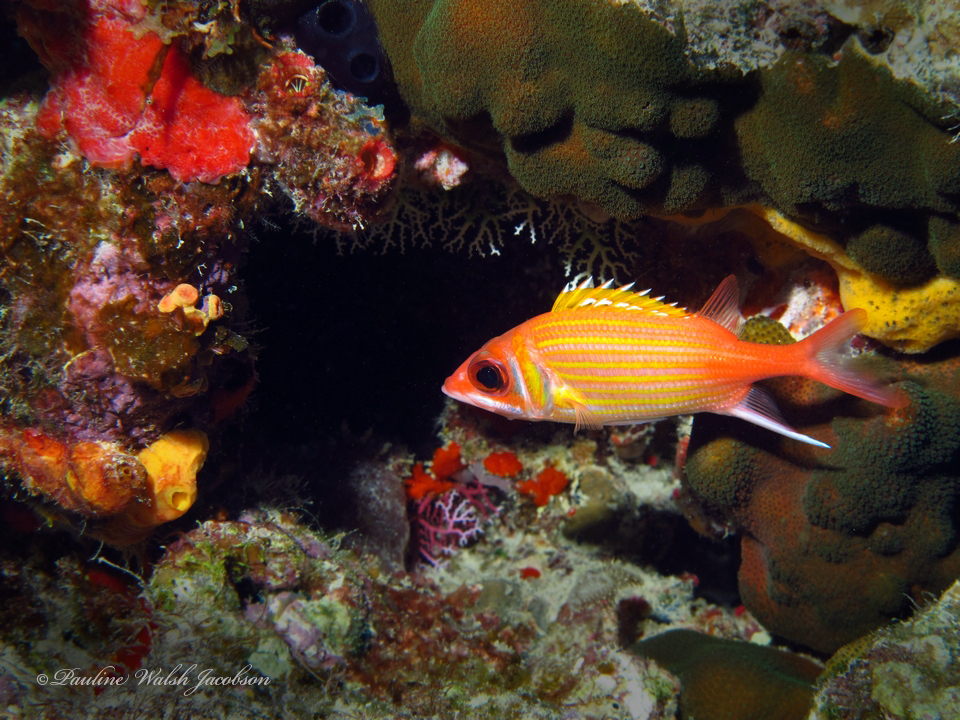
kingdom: Animalia
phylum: Chordata
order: Beryciformes
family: Holocentridae
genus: Neoniphon
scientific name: Neoniphon marianus
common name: Longjaw squirrelfish
